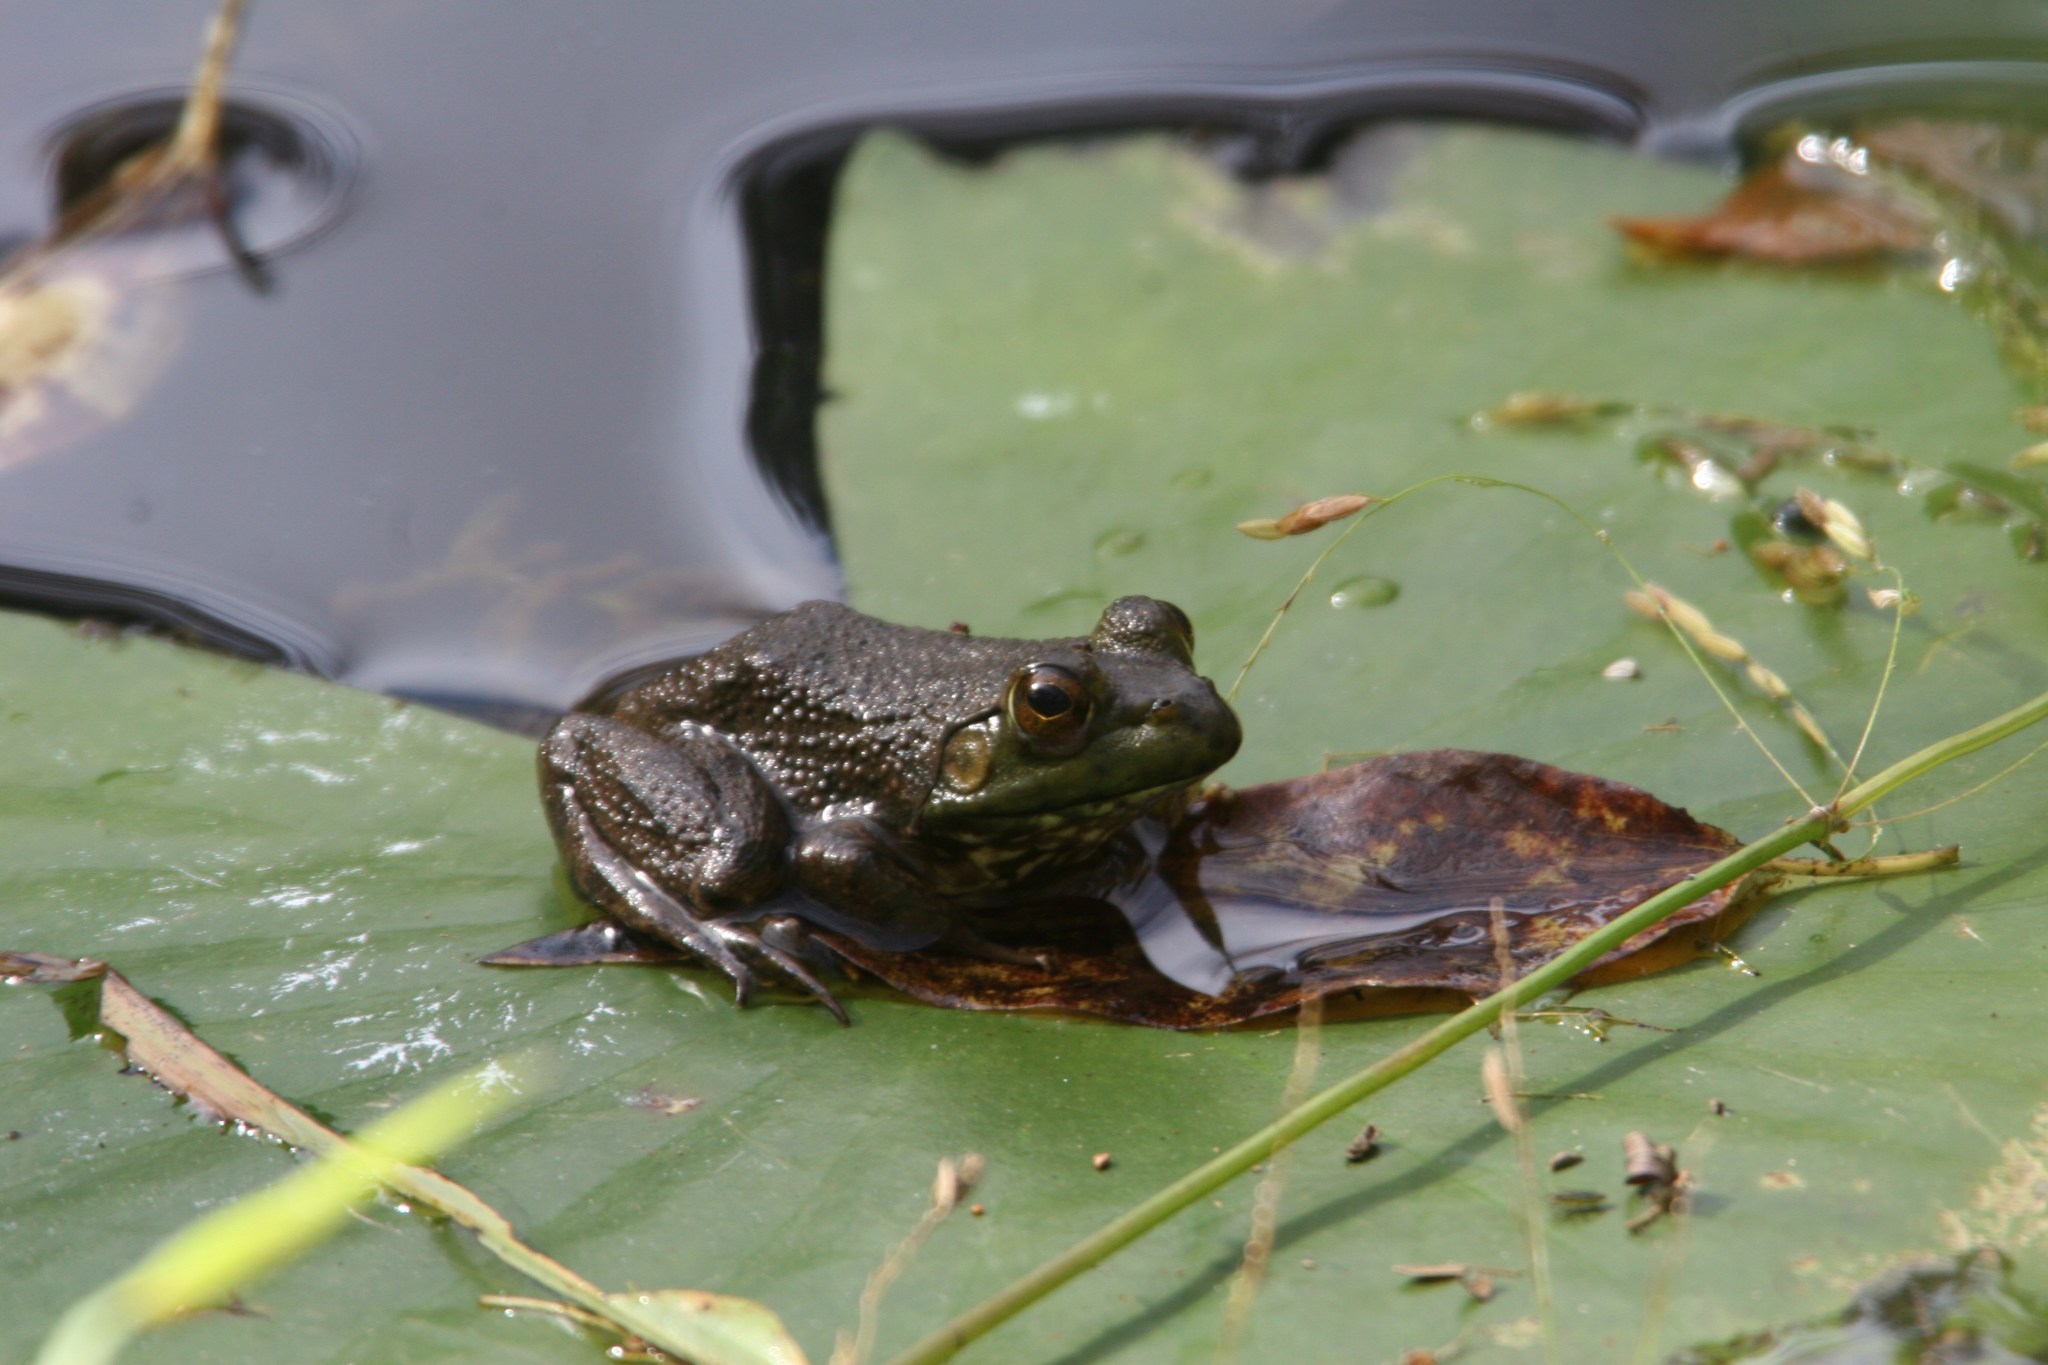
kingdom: Animalia
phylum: Chordata
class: Amphibia
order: Anura
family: Ranidae
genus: Lithobates
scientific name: Lithobates catesbeianus
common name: American bullfrog
